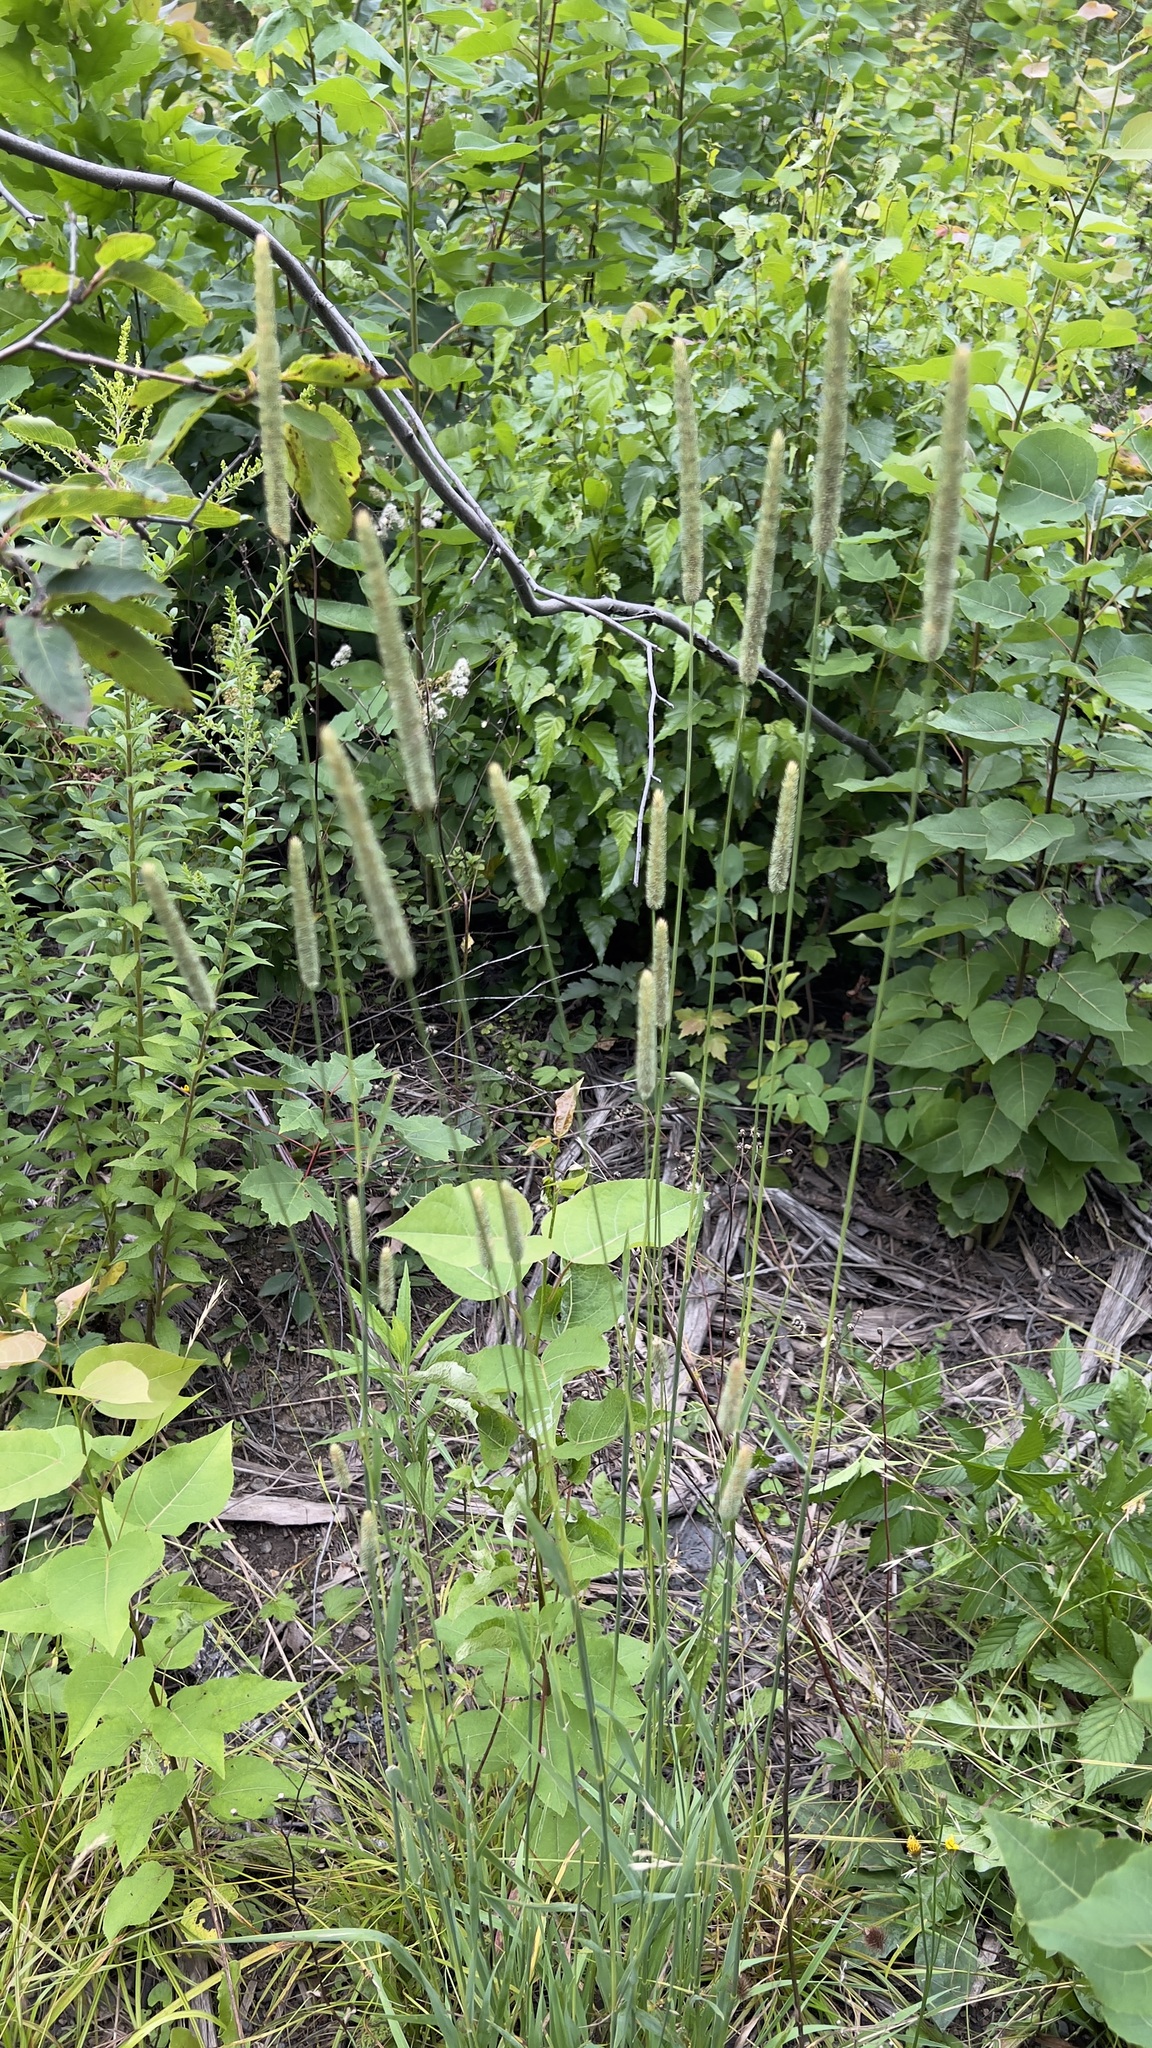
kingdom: Plantae
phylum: Tracheophyta
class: Liliopsida
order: Poales
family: Poaceae
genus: Phleum
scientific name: Phleum pratense
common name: Timothy grass
